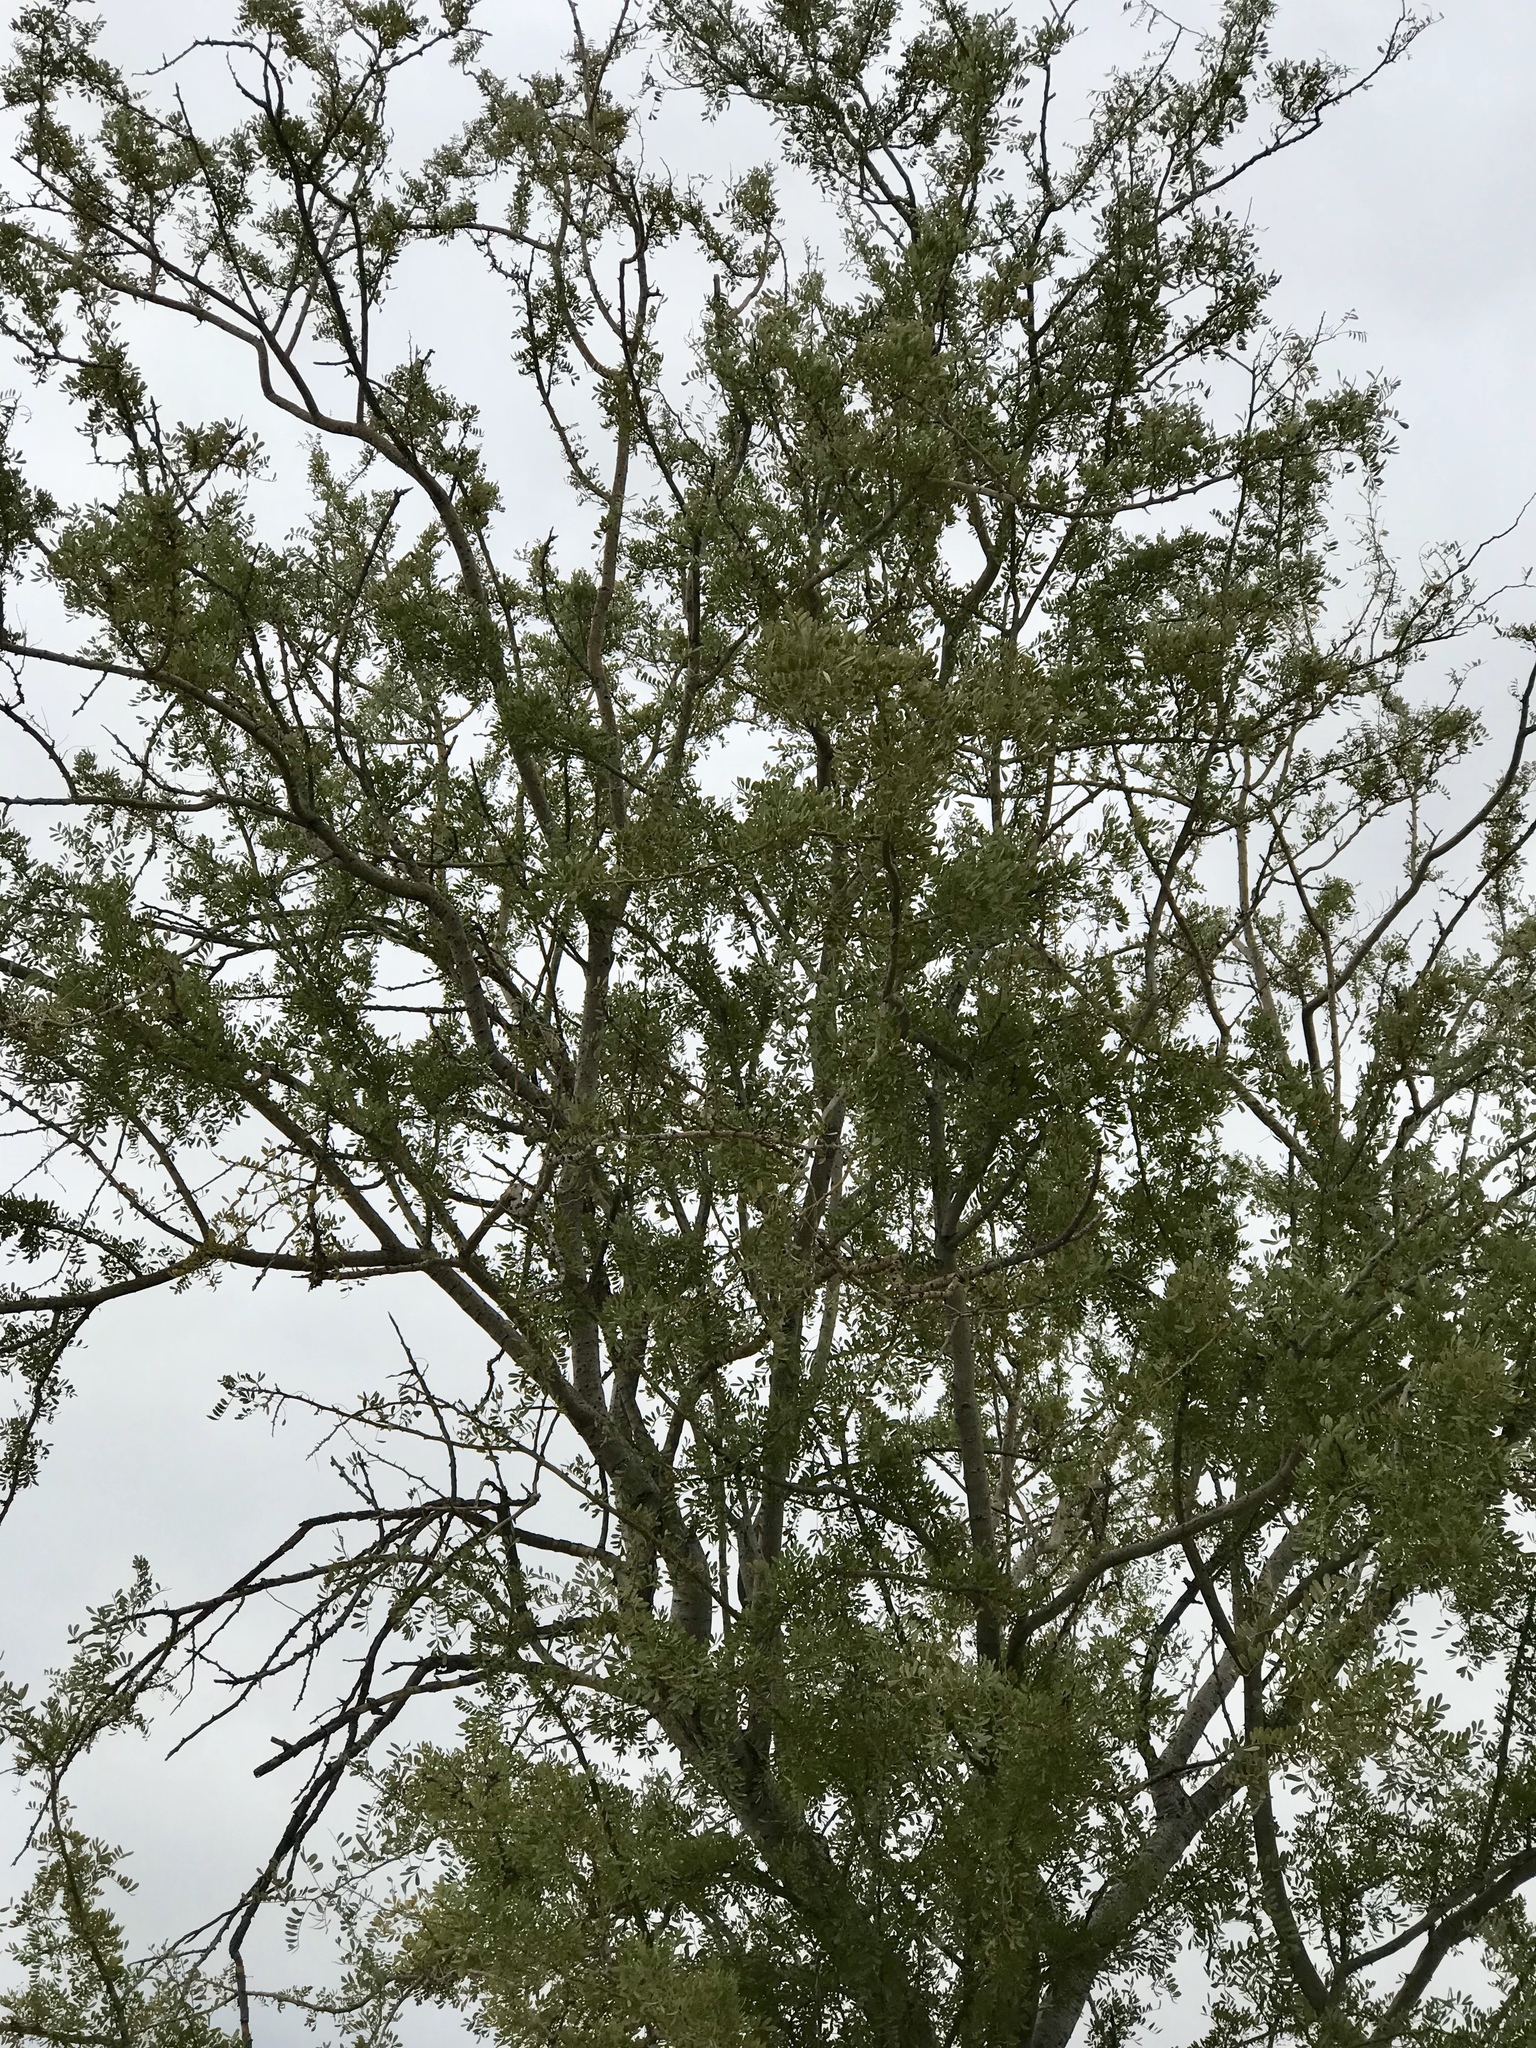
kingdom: Plantae
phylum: Tracheophyta
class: Magnoliopsida
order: Fabales
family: Fabaceae
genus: Olneya
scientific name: Olneya tesota
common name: Desert ironwood
